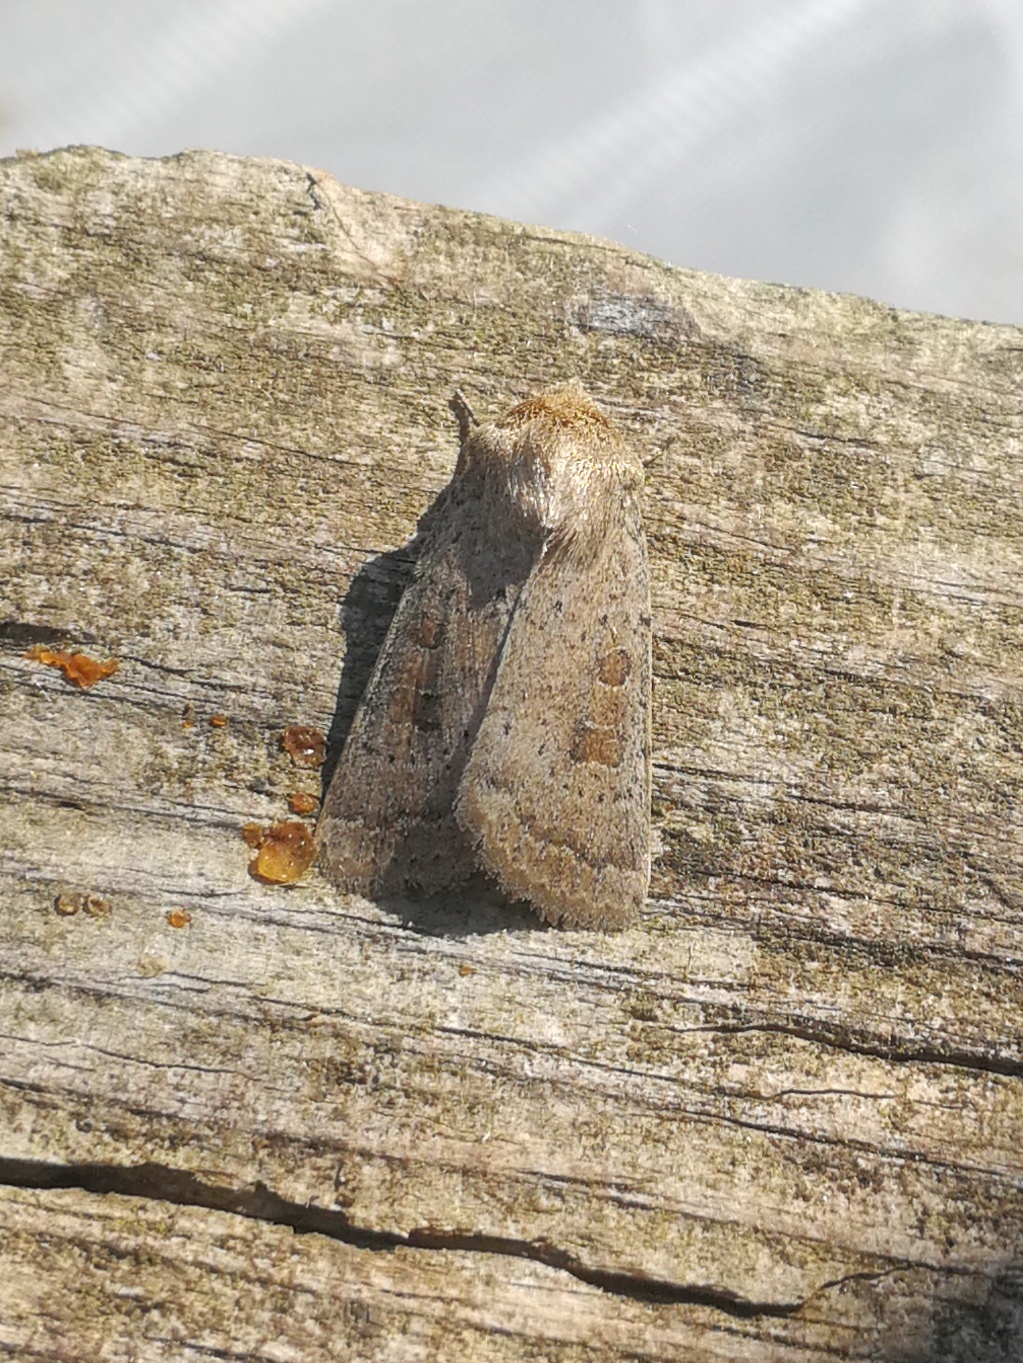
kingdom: Animalia
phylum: Arthropoda
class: Insecta
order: Lepidoptera
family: Noctuidae
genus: Hoplodrina
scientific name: Hoplodrina ambigua
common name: Vine's rustic
